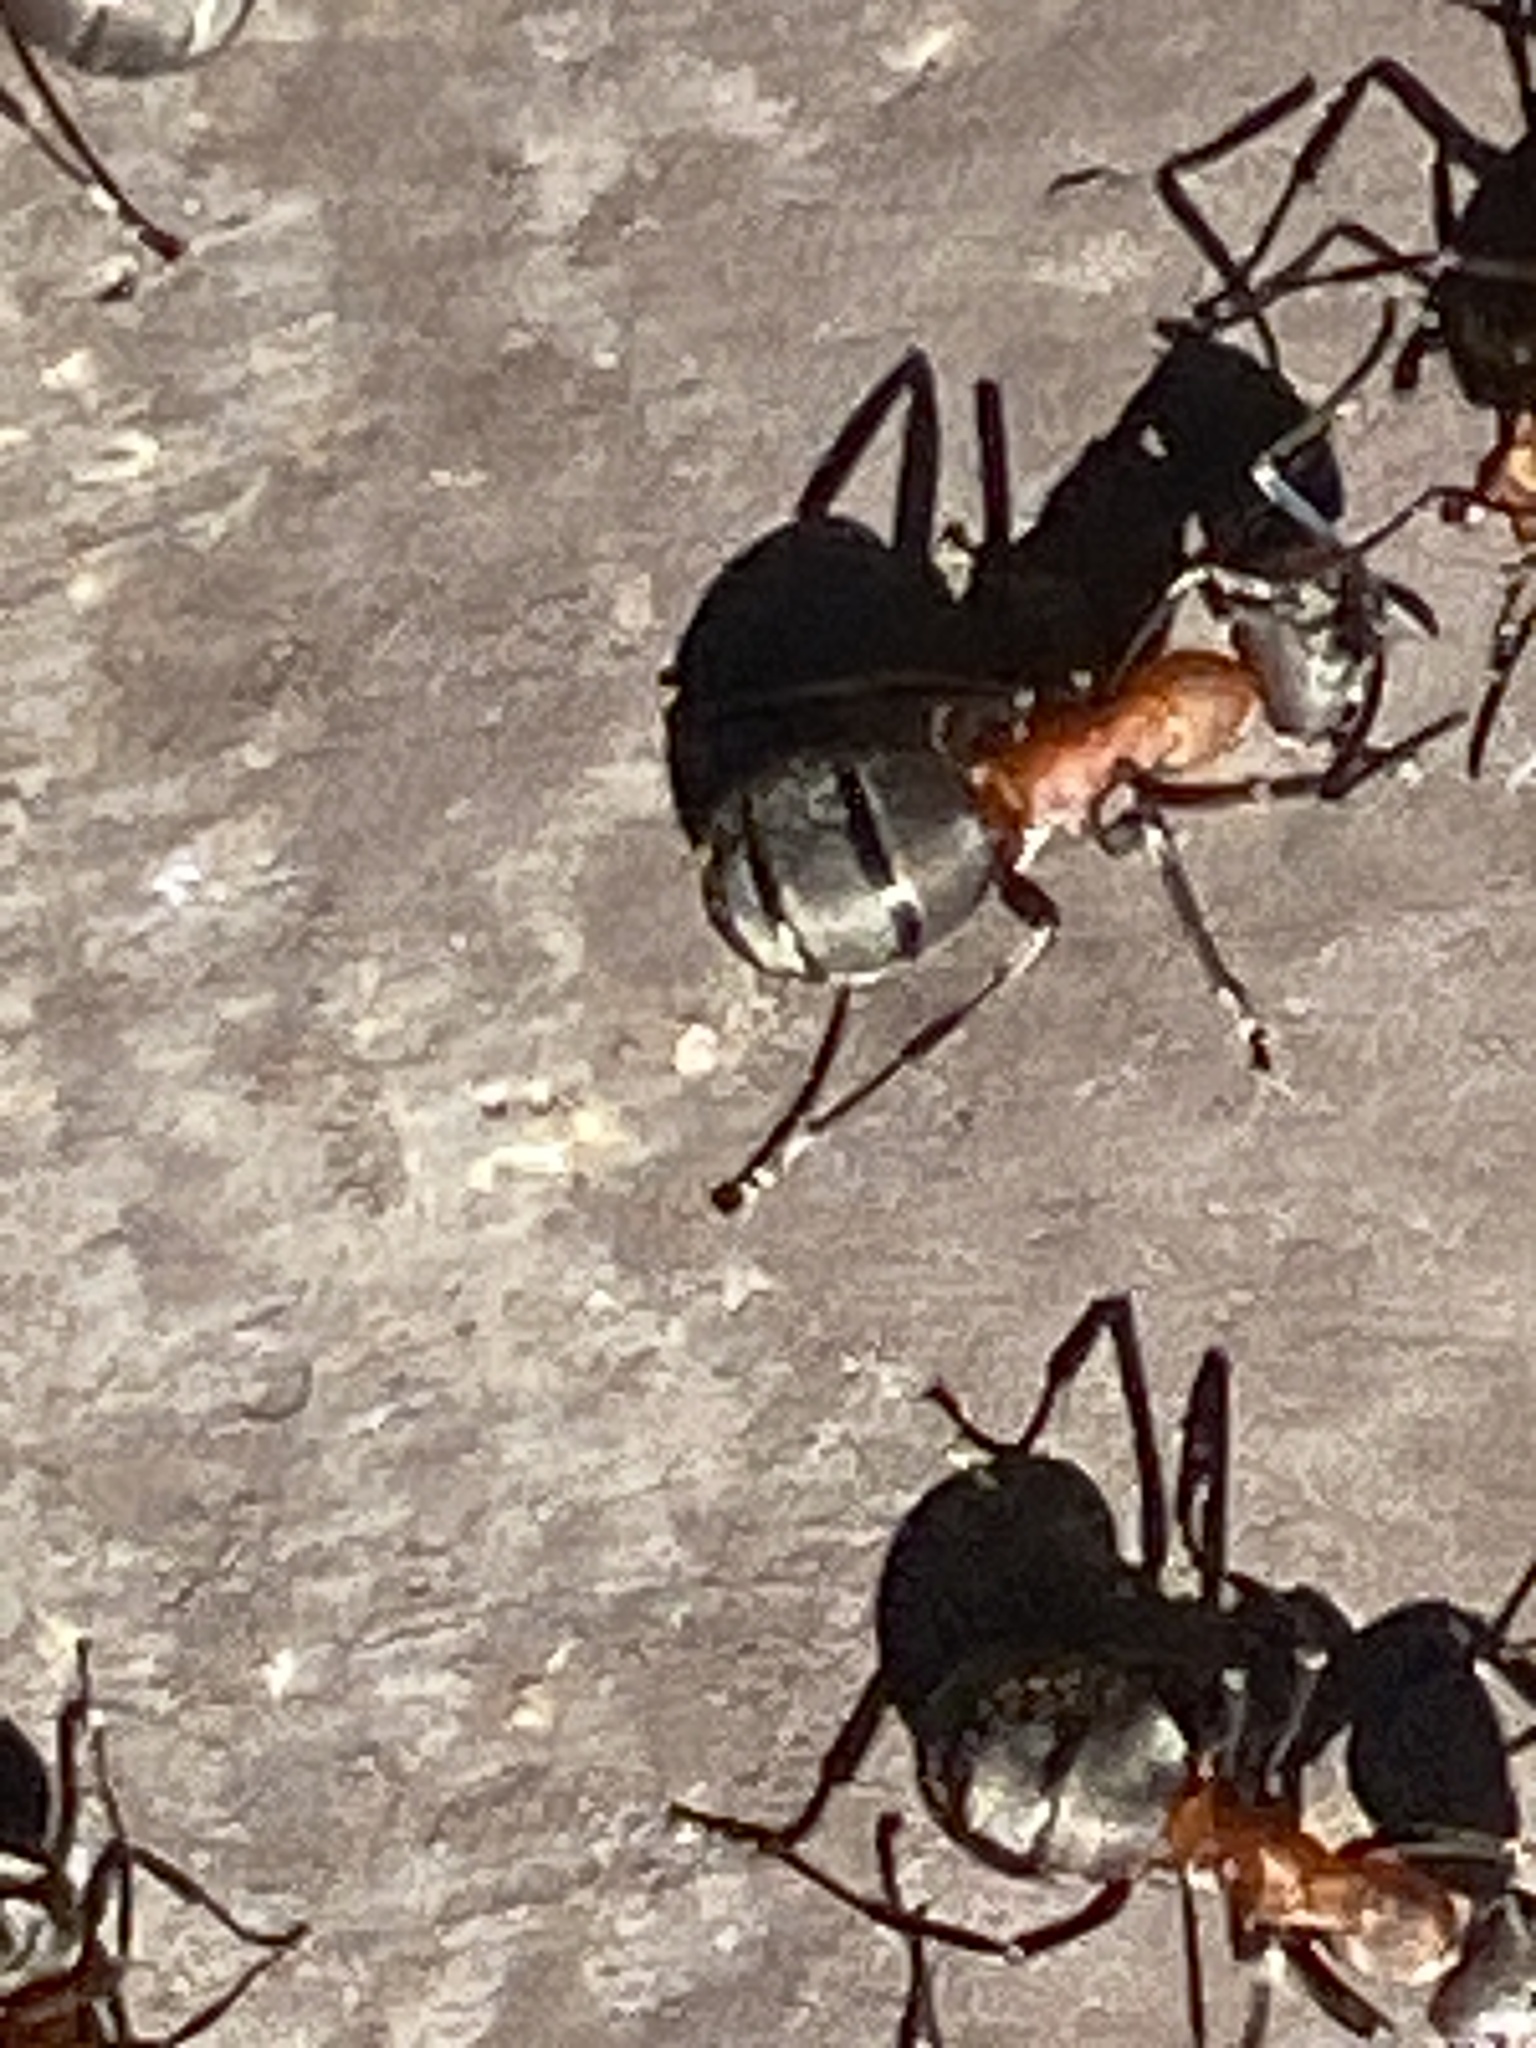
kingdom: Animalia
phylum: Arthropoda
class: Insecta
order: Hymenoptera
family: Formicidae
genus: Formica
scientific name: Formica
